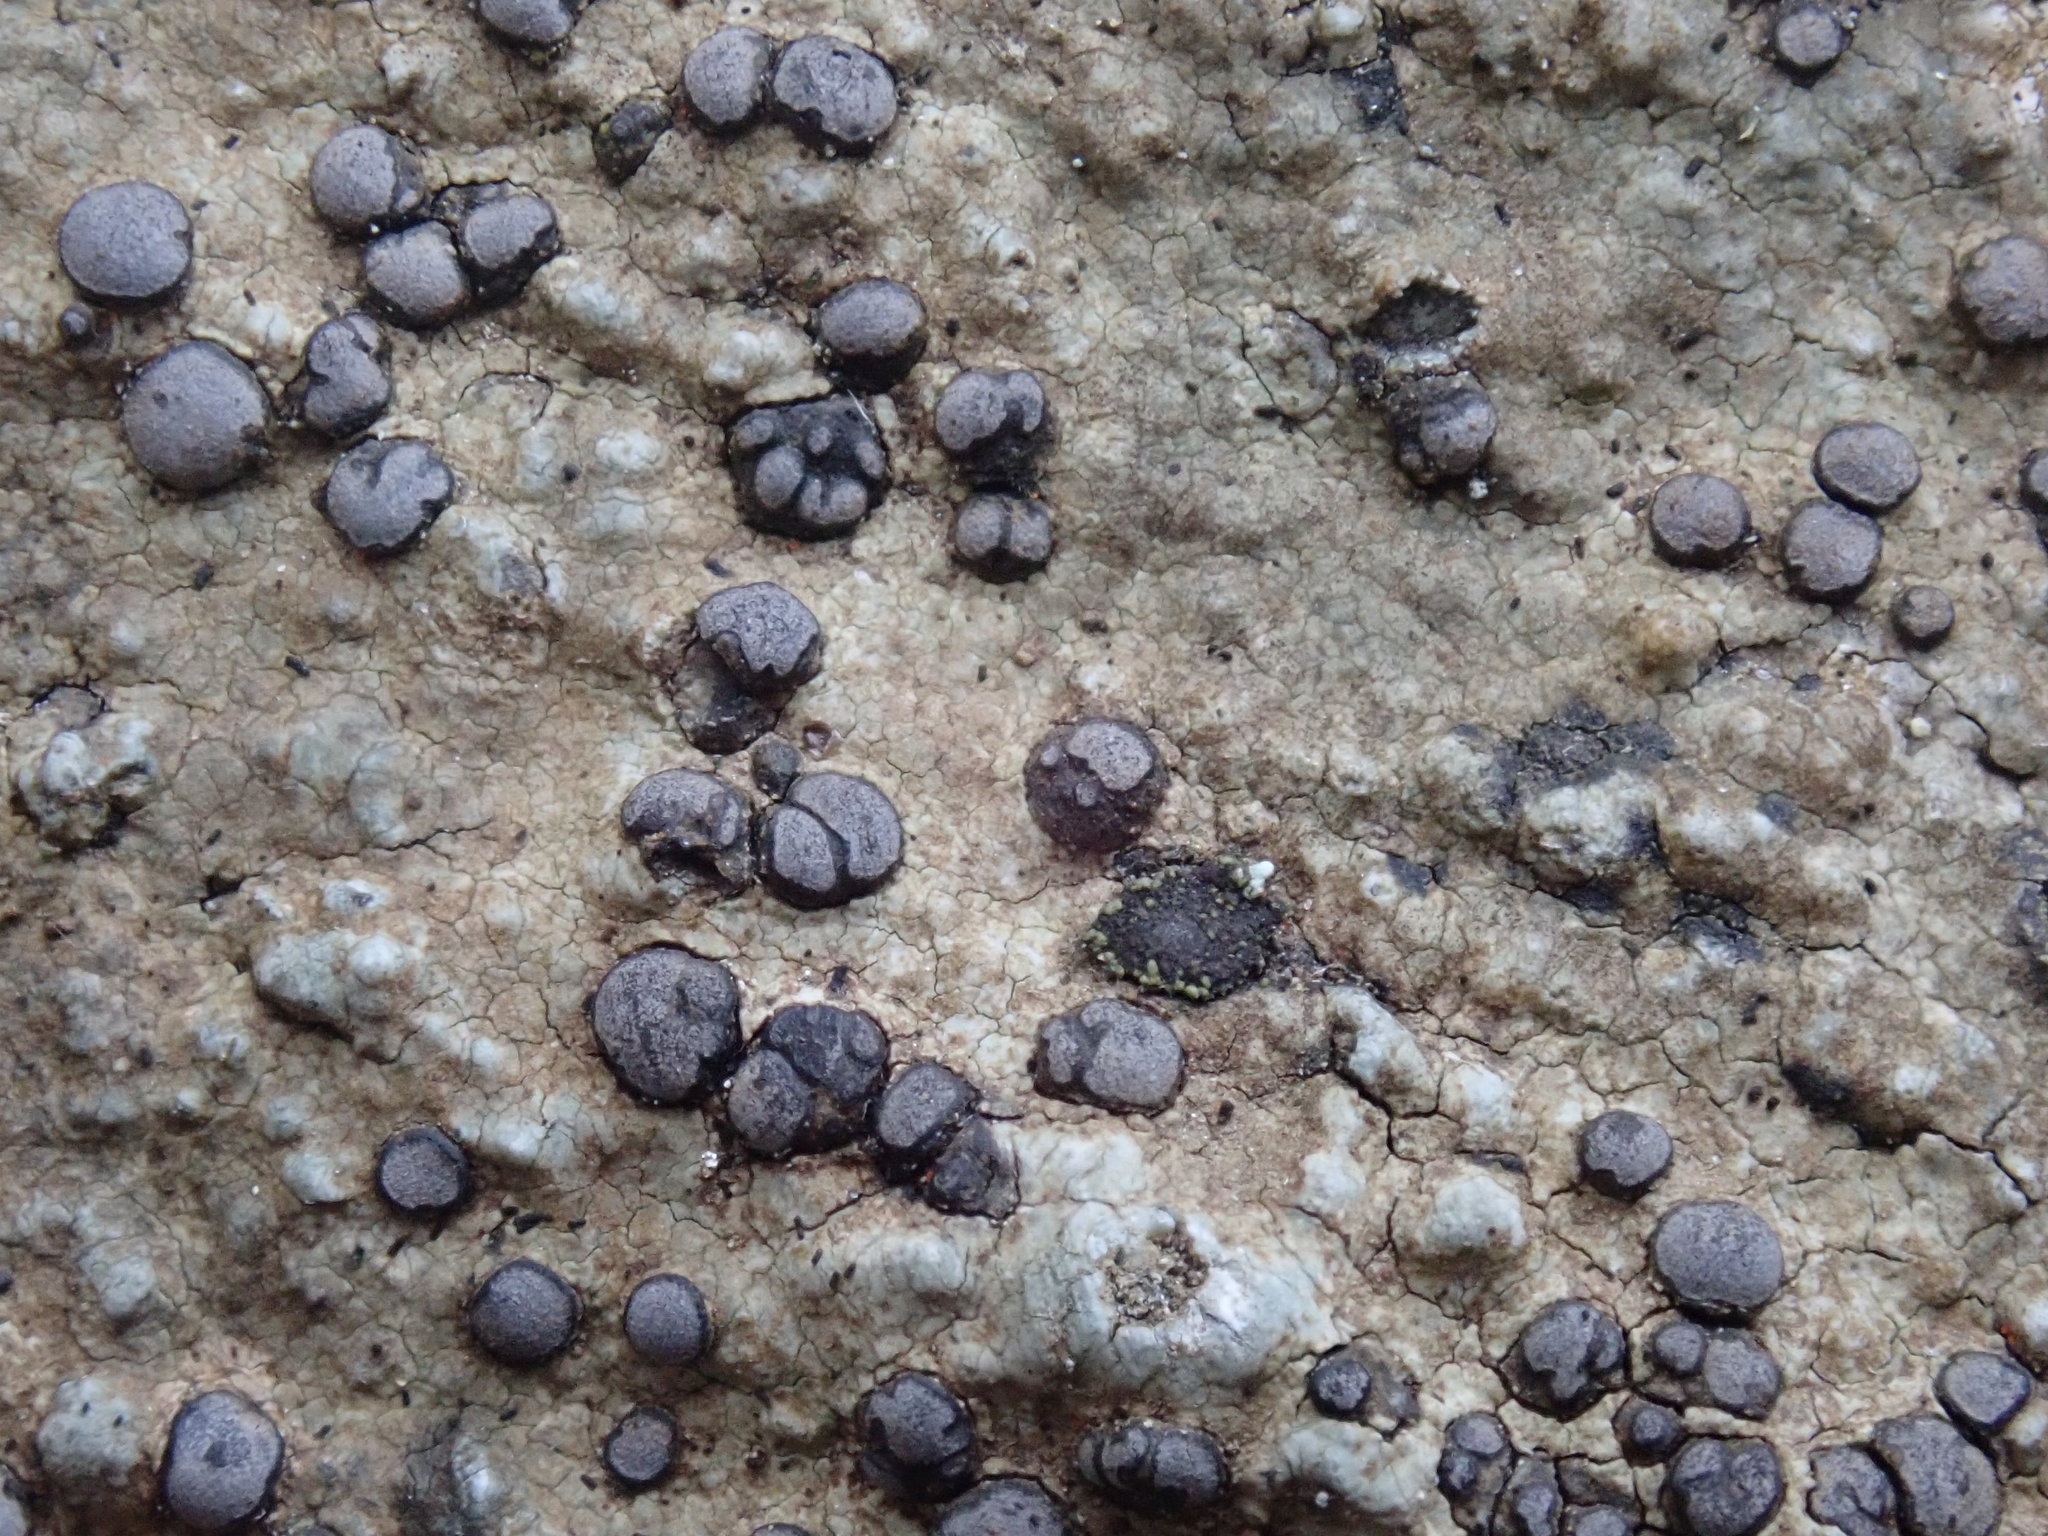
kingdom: Fungi
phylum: Ascomycota
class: Lecanoromycetes
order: Lecideales
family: Lecideaceae
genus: Porpidia
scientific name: Porpidia albocaerulescens
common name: Smokey-eyed boulder lichen
